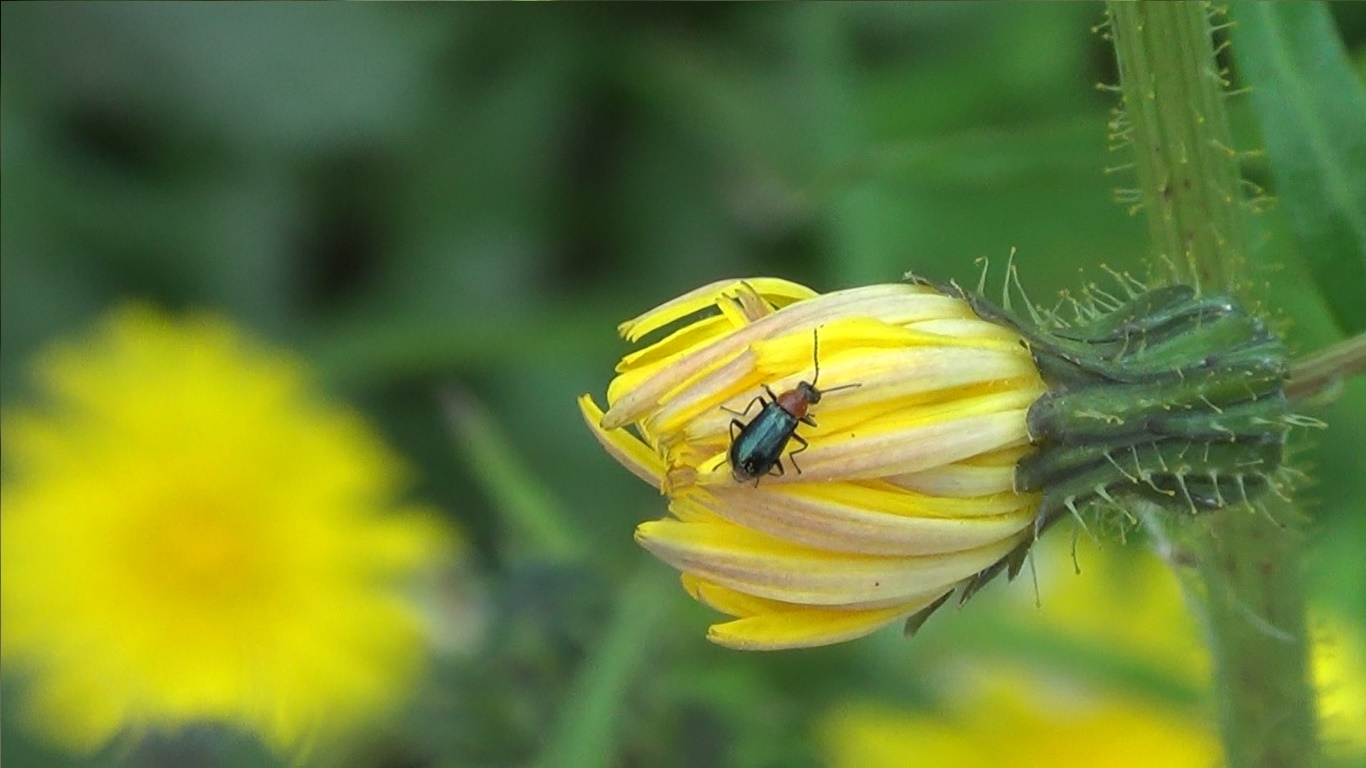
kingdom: Animalia
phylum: Arthropoda
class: Insecta
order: Coleoptera
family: Malachiidae
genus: Attalus
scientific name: Attalus cyaneus
